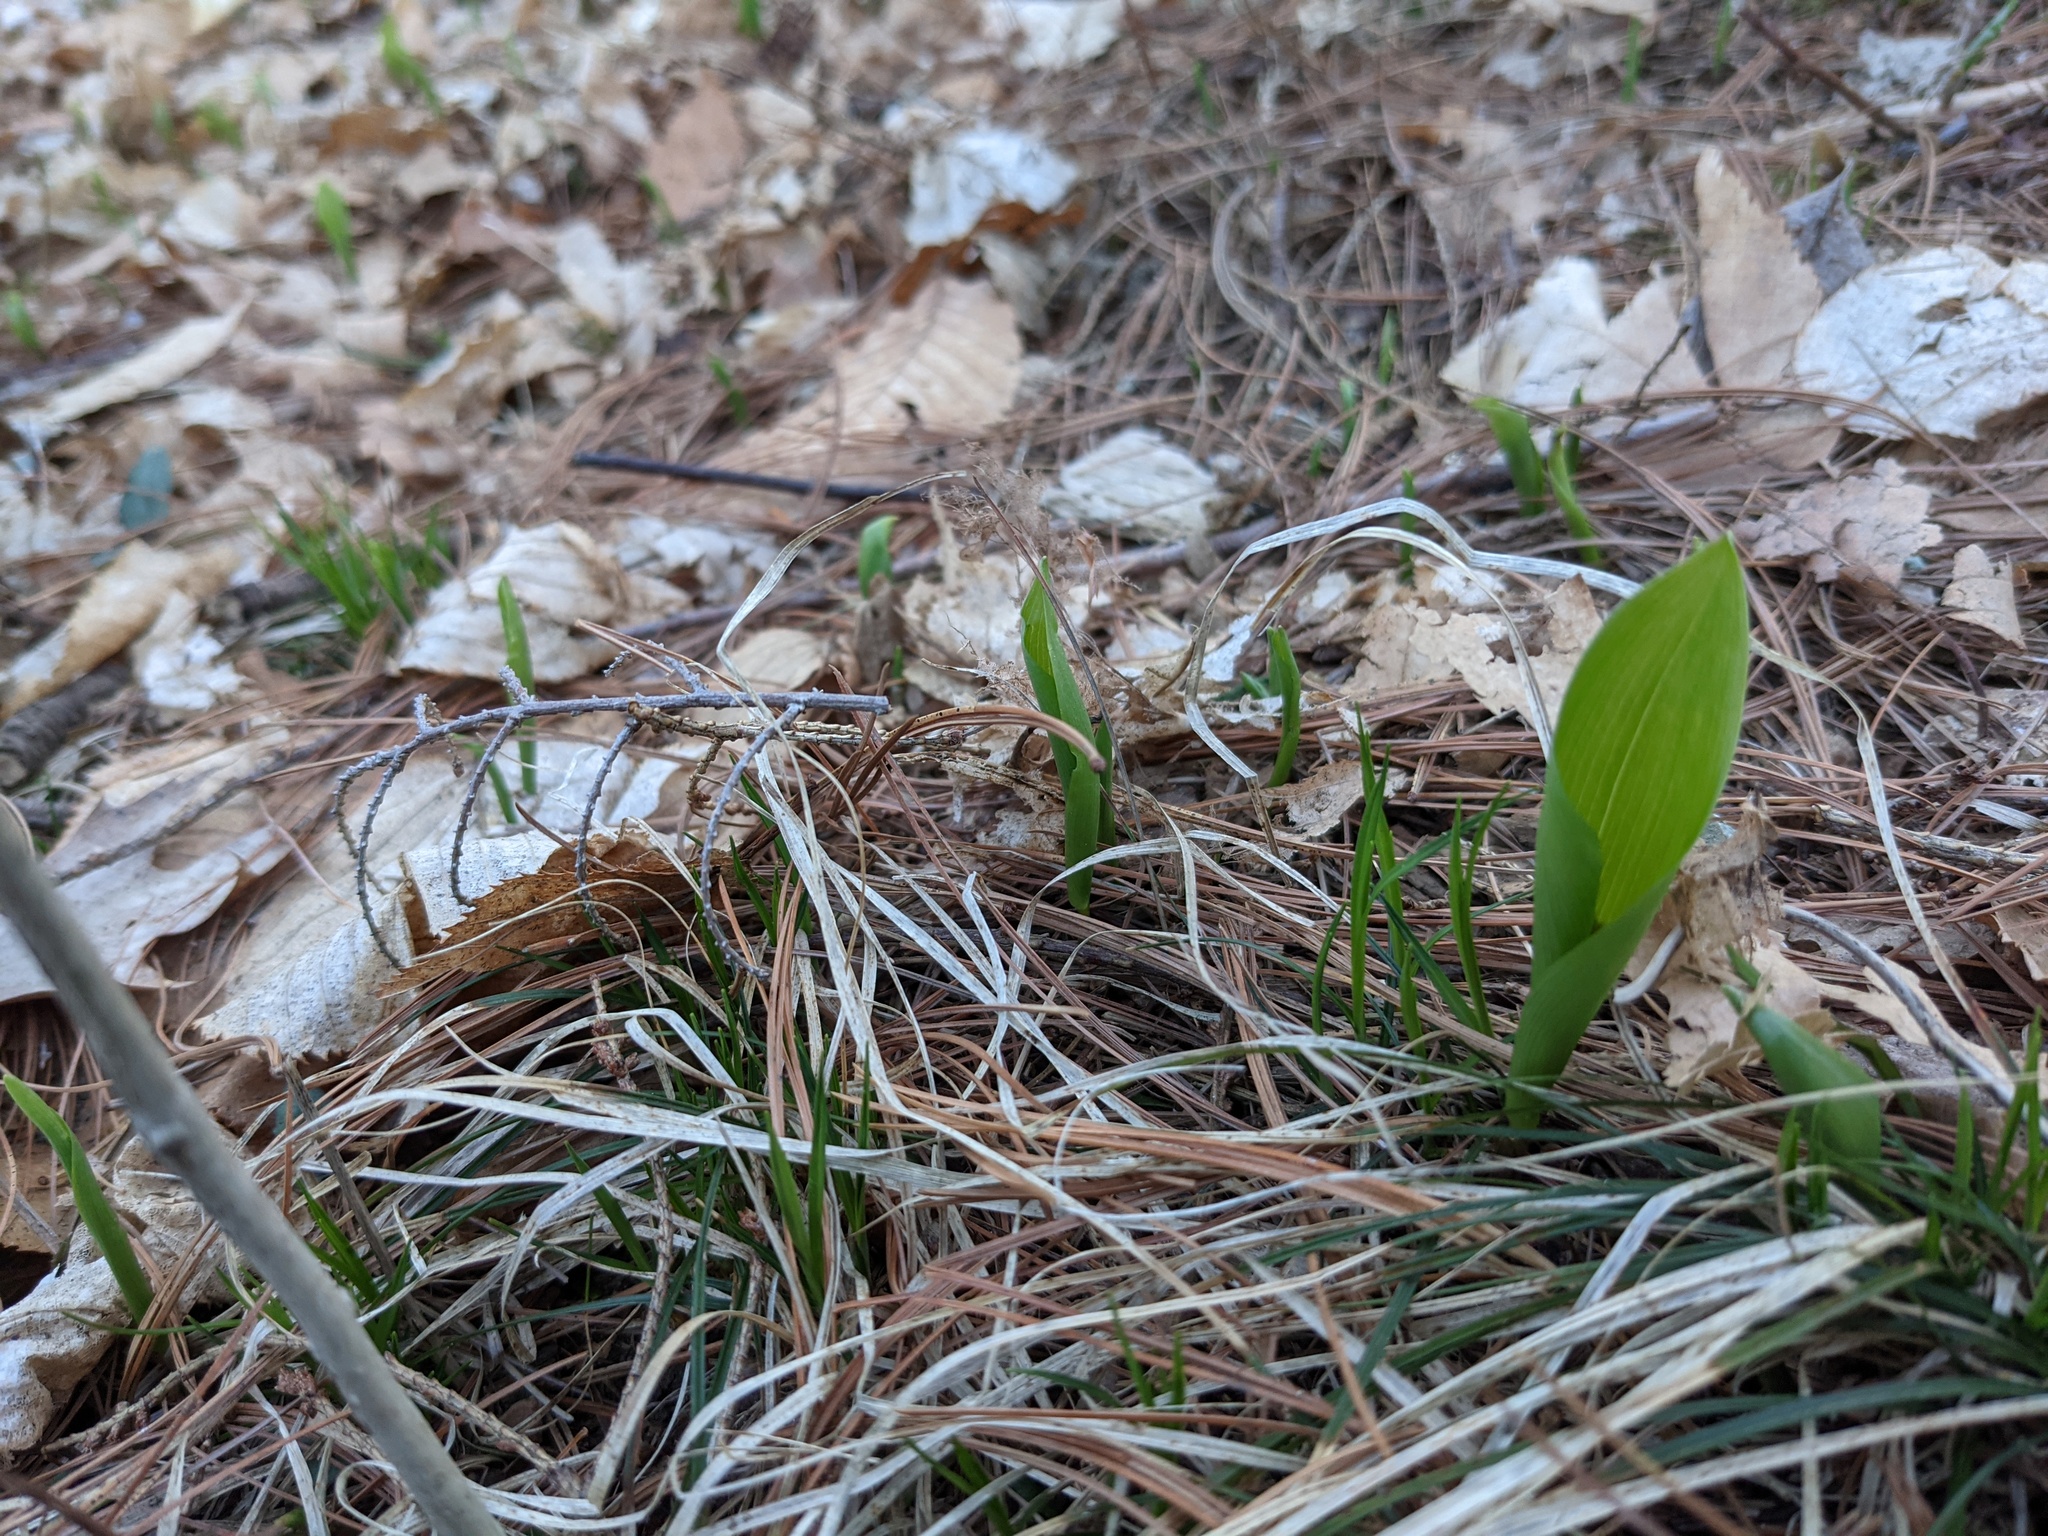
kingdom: Plantae
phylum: Tracheophyta
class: Liliopsida
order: Asparagales
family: Asparagaceae
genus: Maianthemum
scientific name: Maianthemum canadense
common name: False lily-of-the-valley
